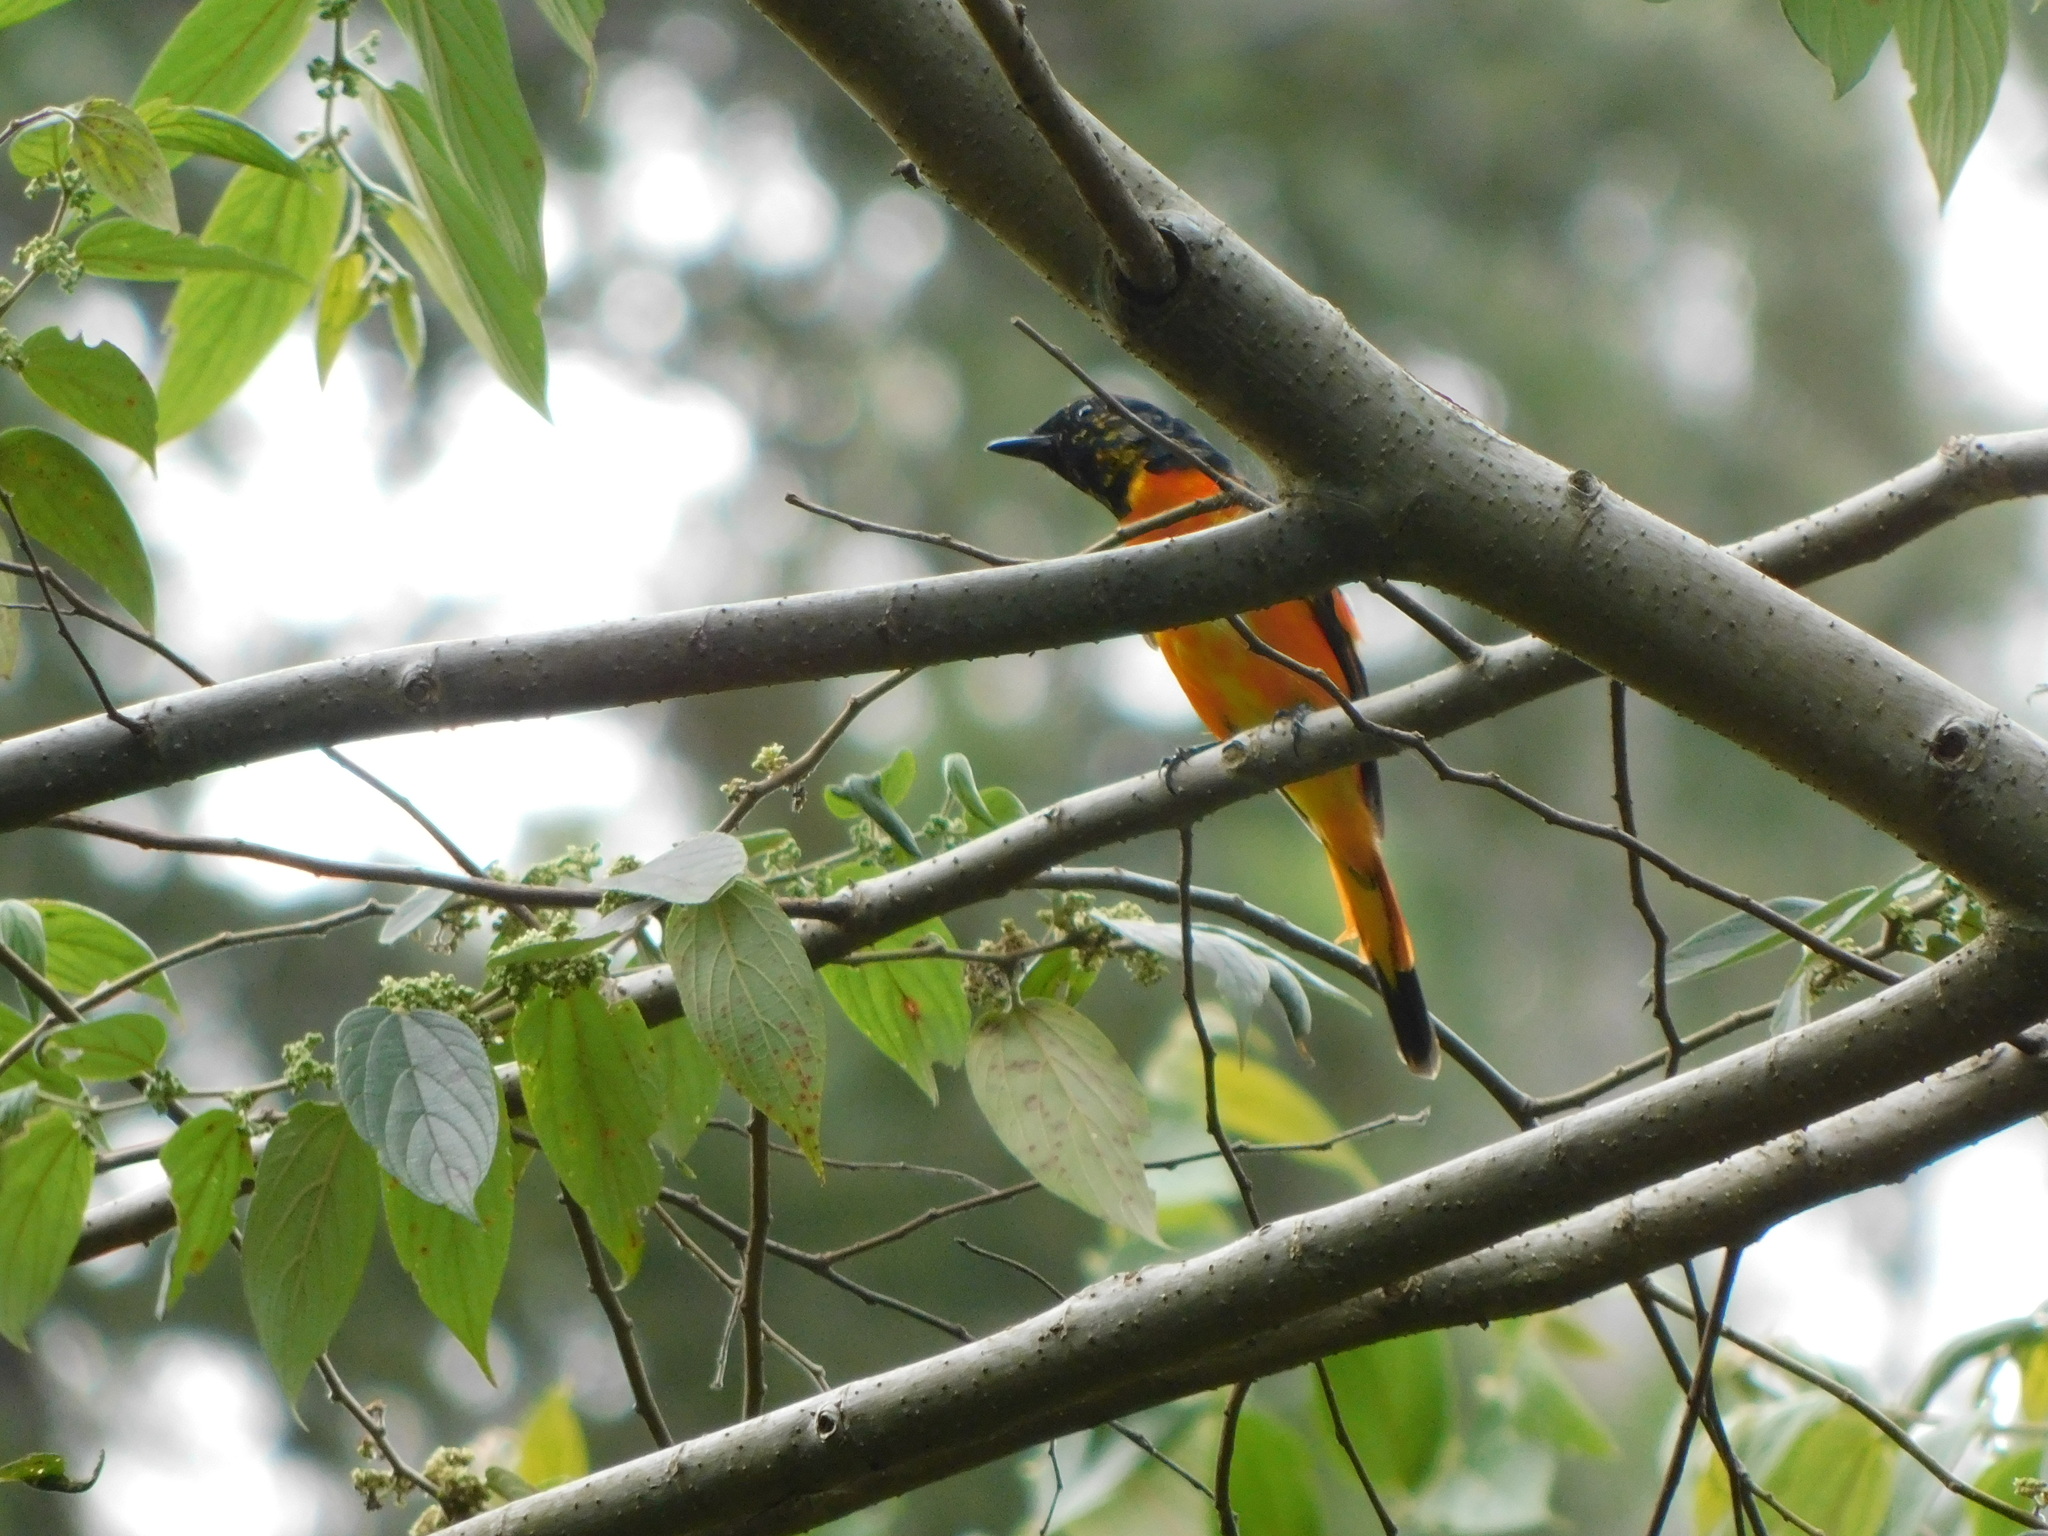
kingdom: Animalia
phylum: Chordata
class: Aves
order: Passeriformes
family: Campephagidae
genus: Pericrocotus
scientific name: Pericrocotus flammeus
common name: Orange minivet
